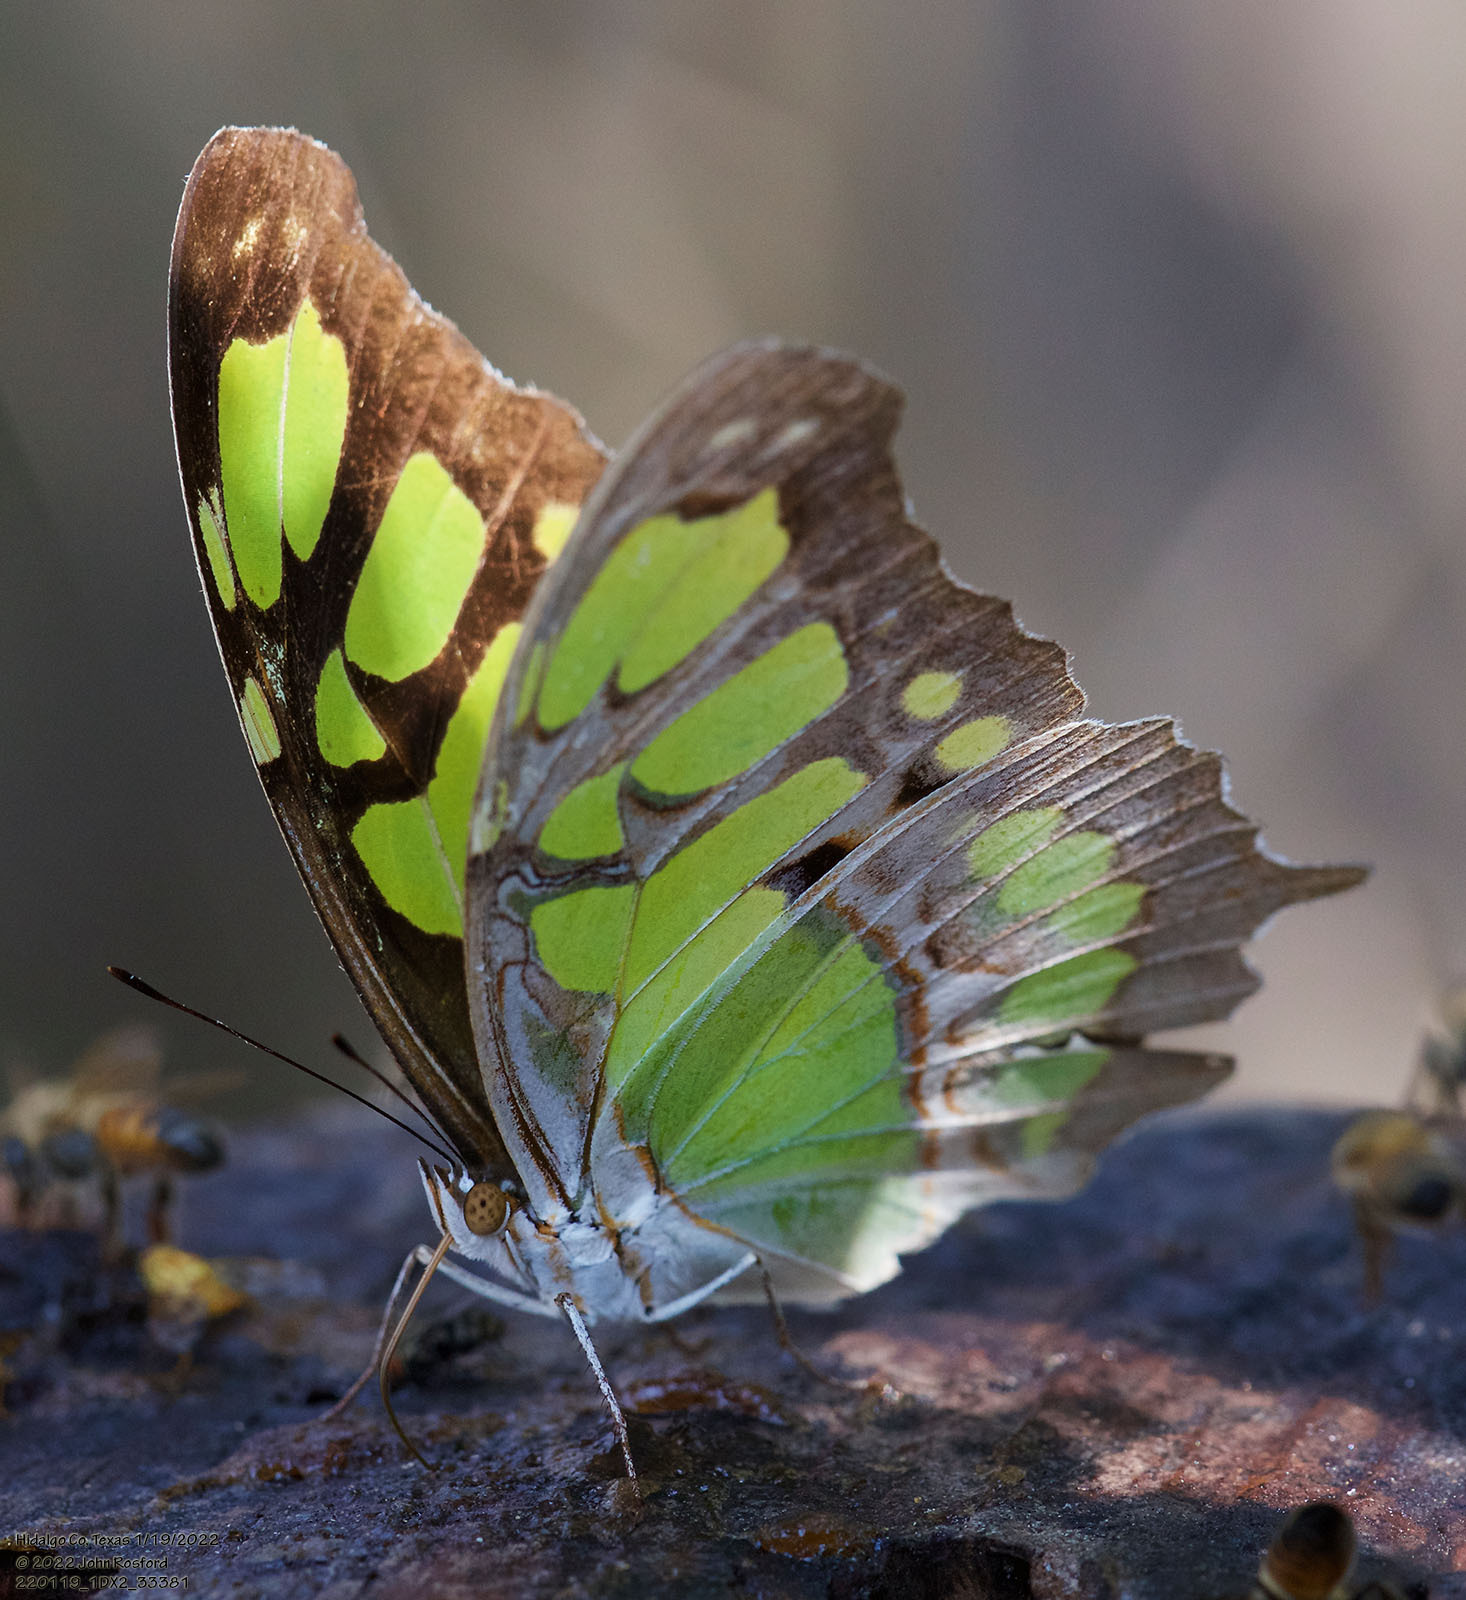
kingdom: Animalia
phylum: Arthropoda
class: Insecta
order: Lepidoptera
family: Nymphalidae
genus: Siproeta
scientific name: Siproeta stelenes
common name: Malachite
